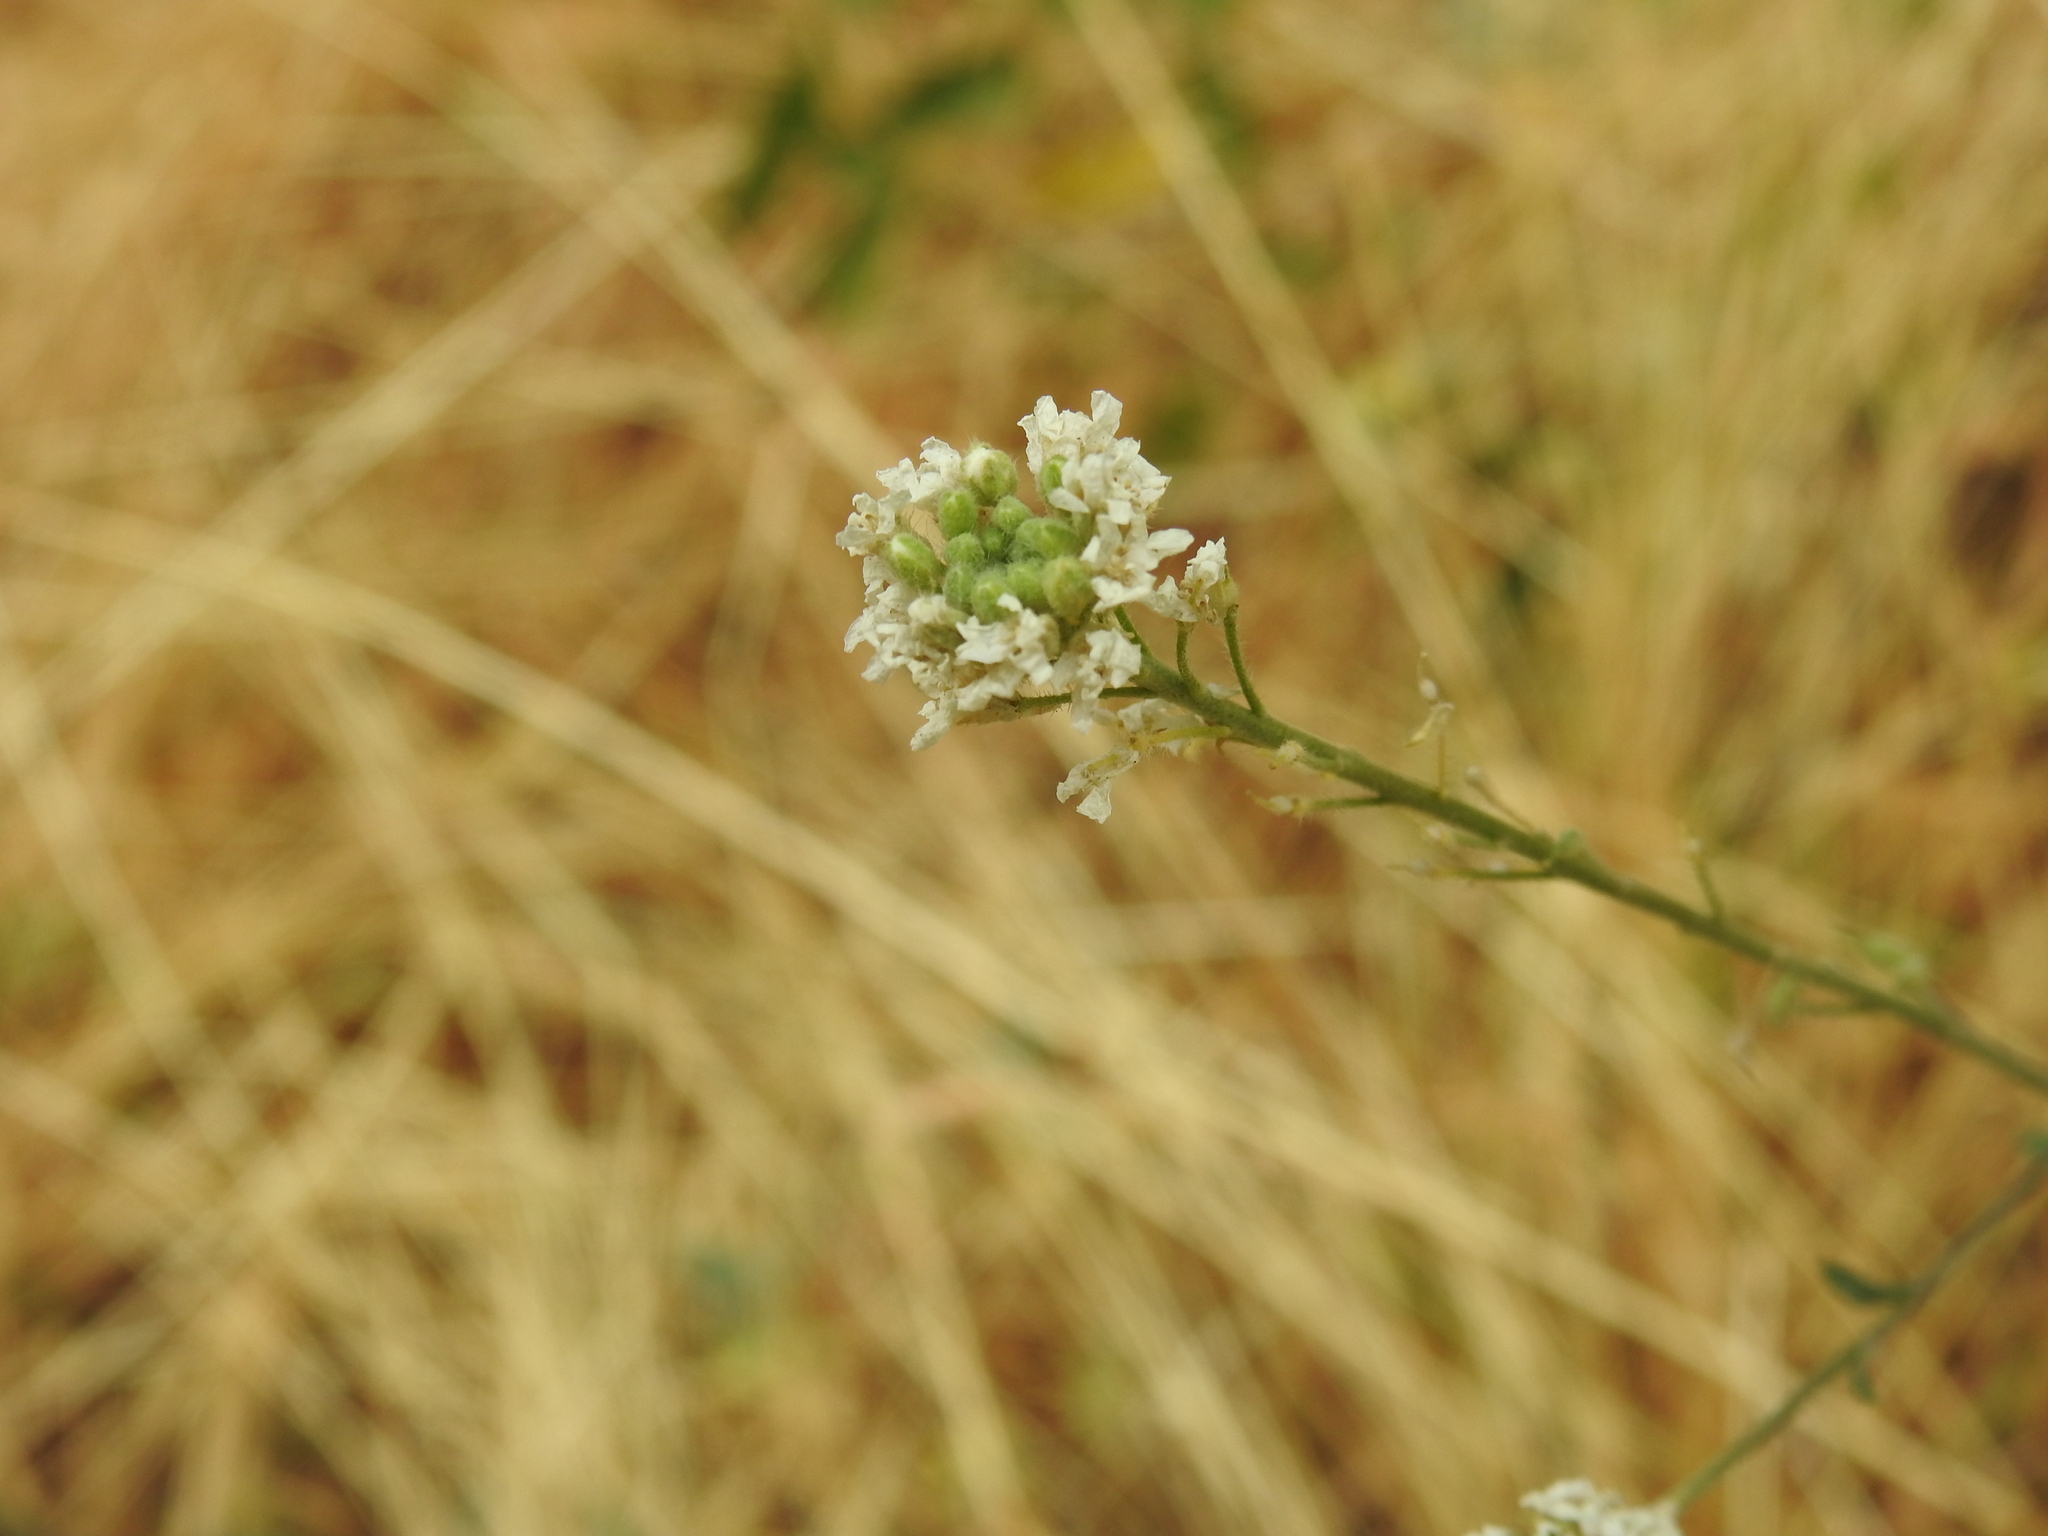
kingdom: Plantae
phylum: Tracheophyta
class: Magnoliopsida
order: Brassicales
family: Brassicaceae
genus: Berteroa
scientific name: Berteroa incana
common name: Hoary alison
